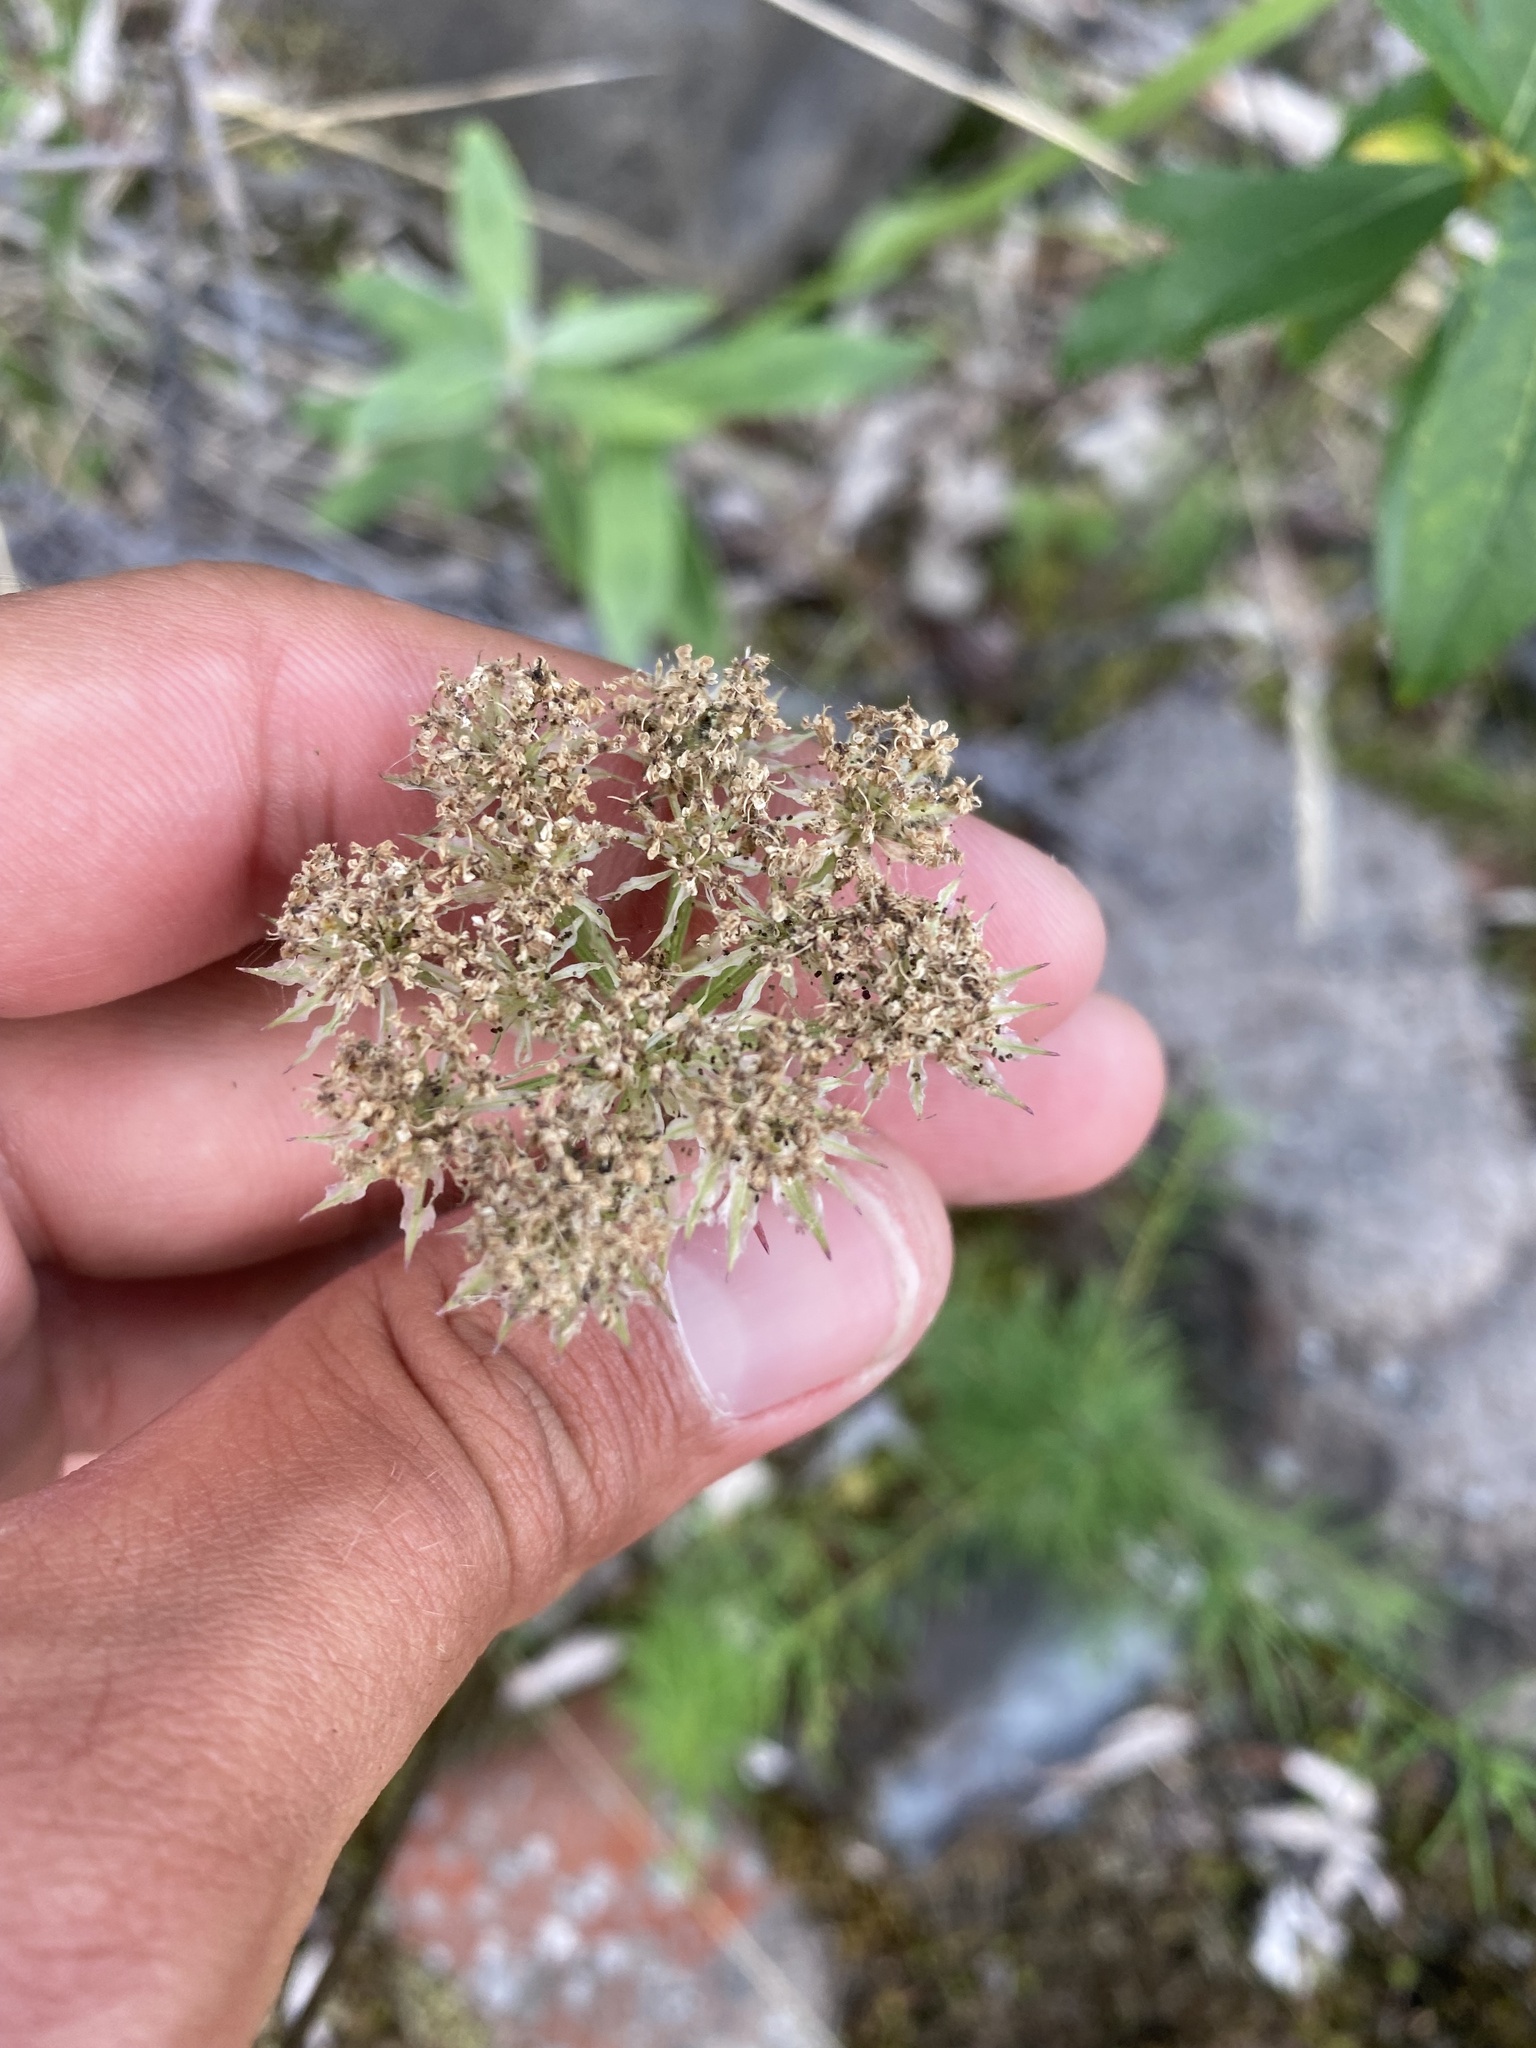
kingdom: Plantae
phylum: Tracheophyta
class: Magnoliopsida
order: Apiales
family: Apiaceae
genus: Pachypleurum
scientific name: Pachypleurum mutellinoides
